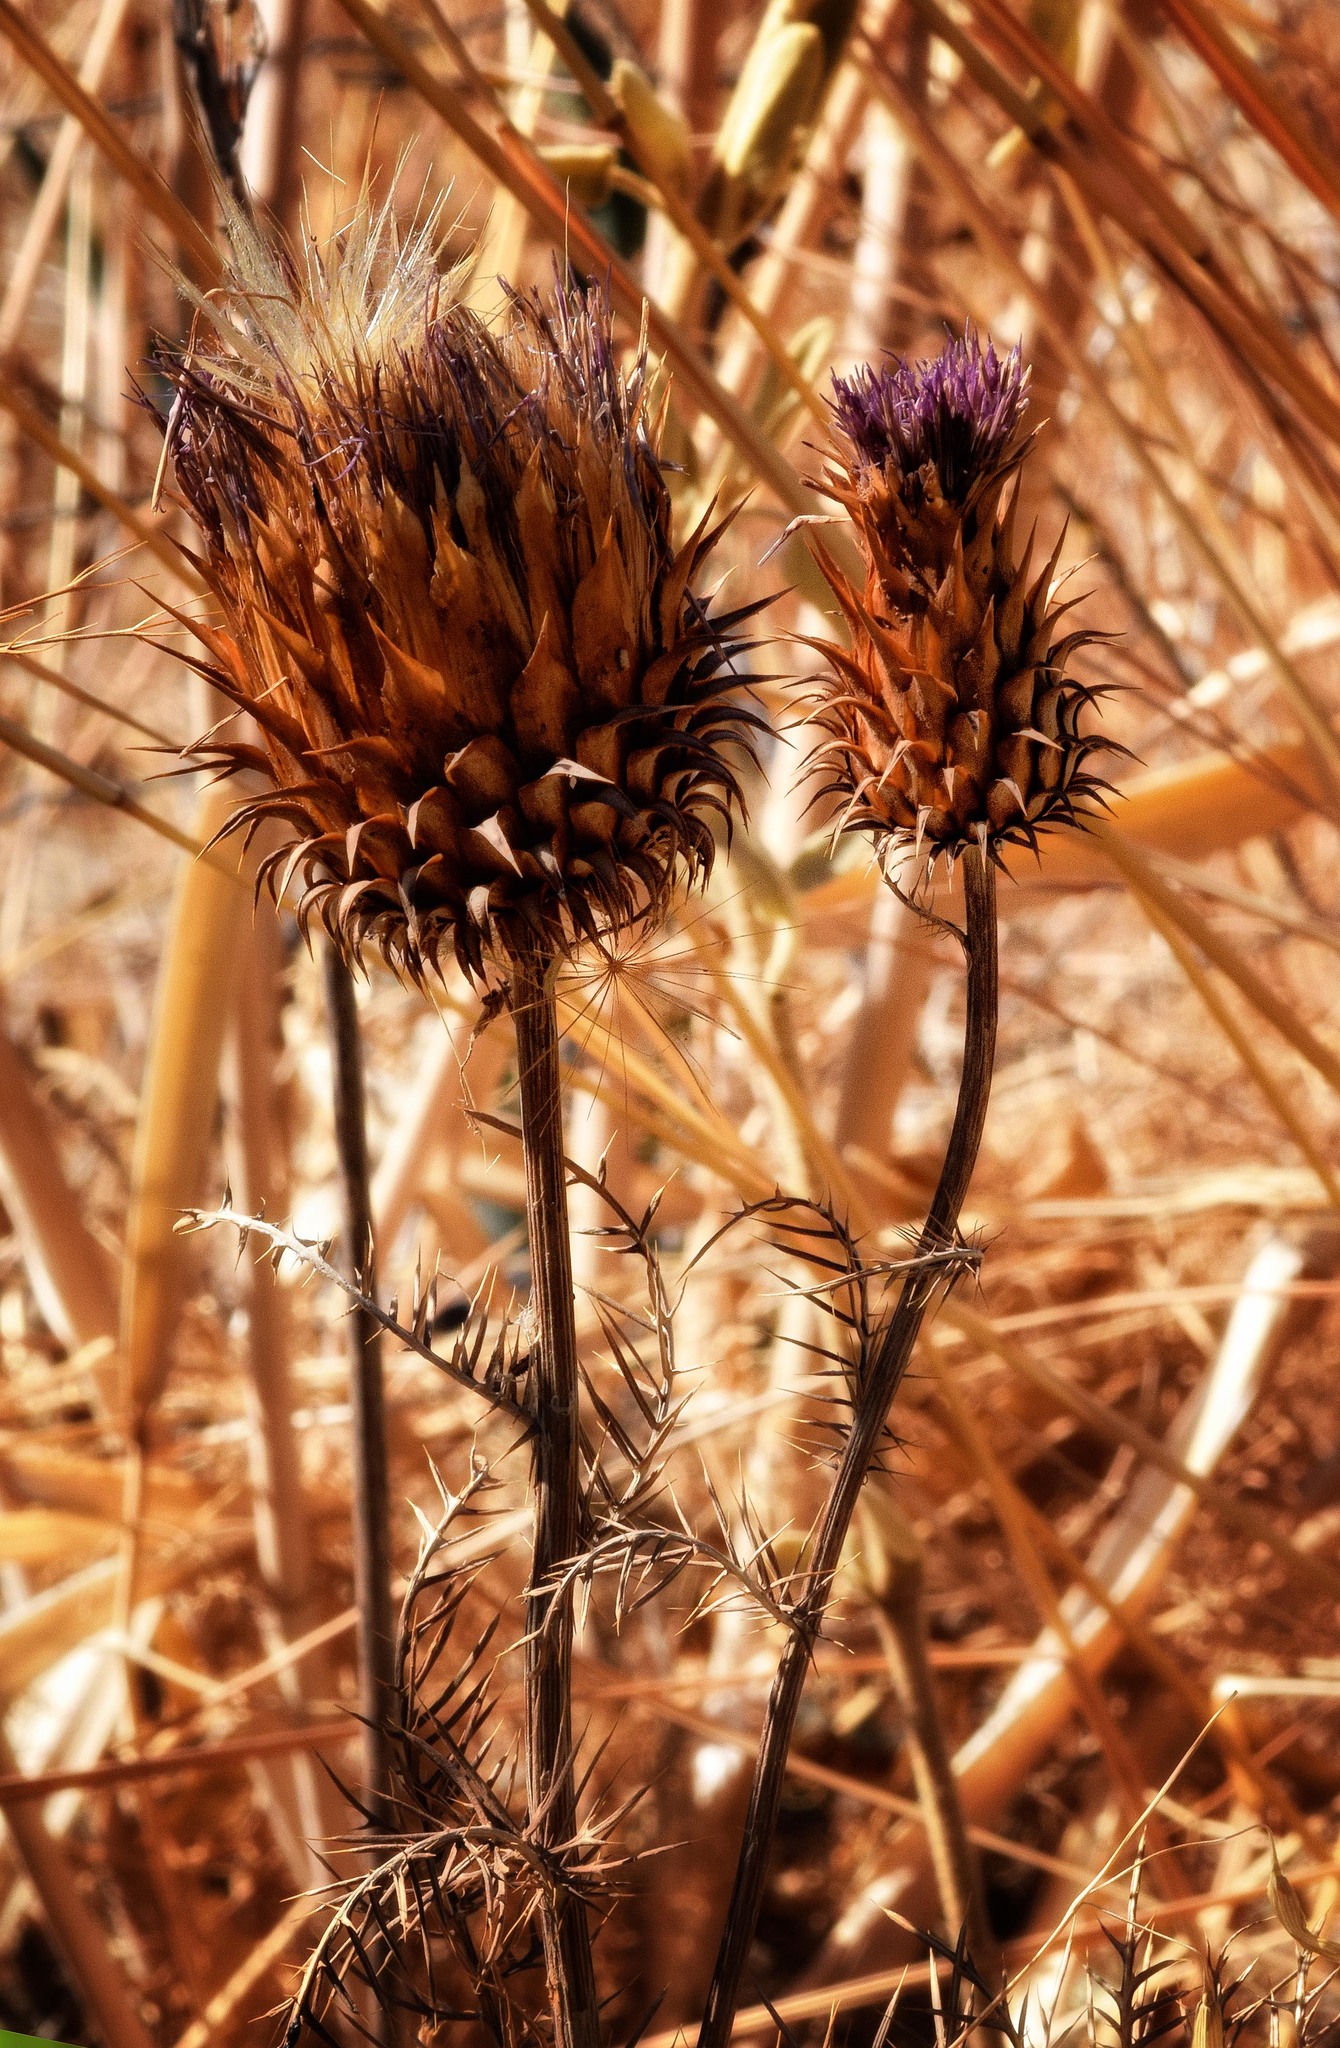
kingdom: Plantae
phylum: Tracheophyta
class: Magnoliopsida
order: Asterales
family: Asteraceae
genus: Cynara
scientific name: Cynara humilis
